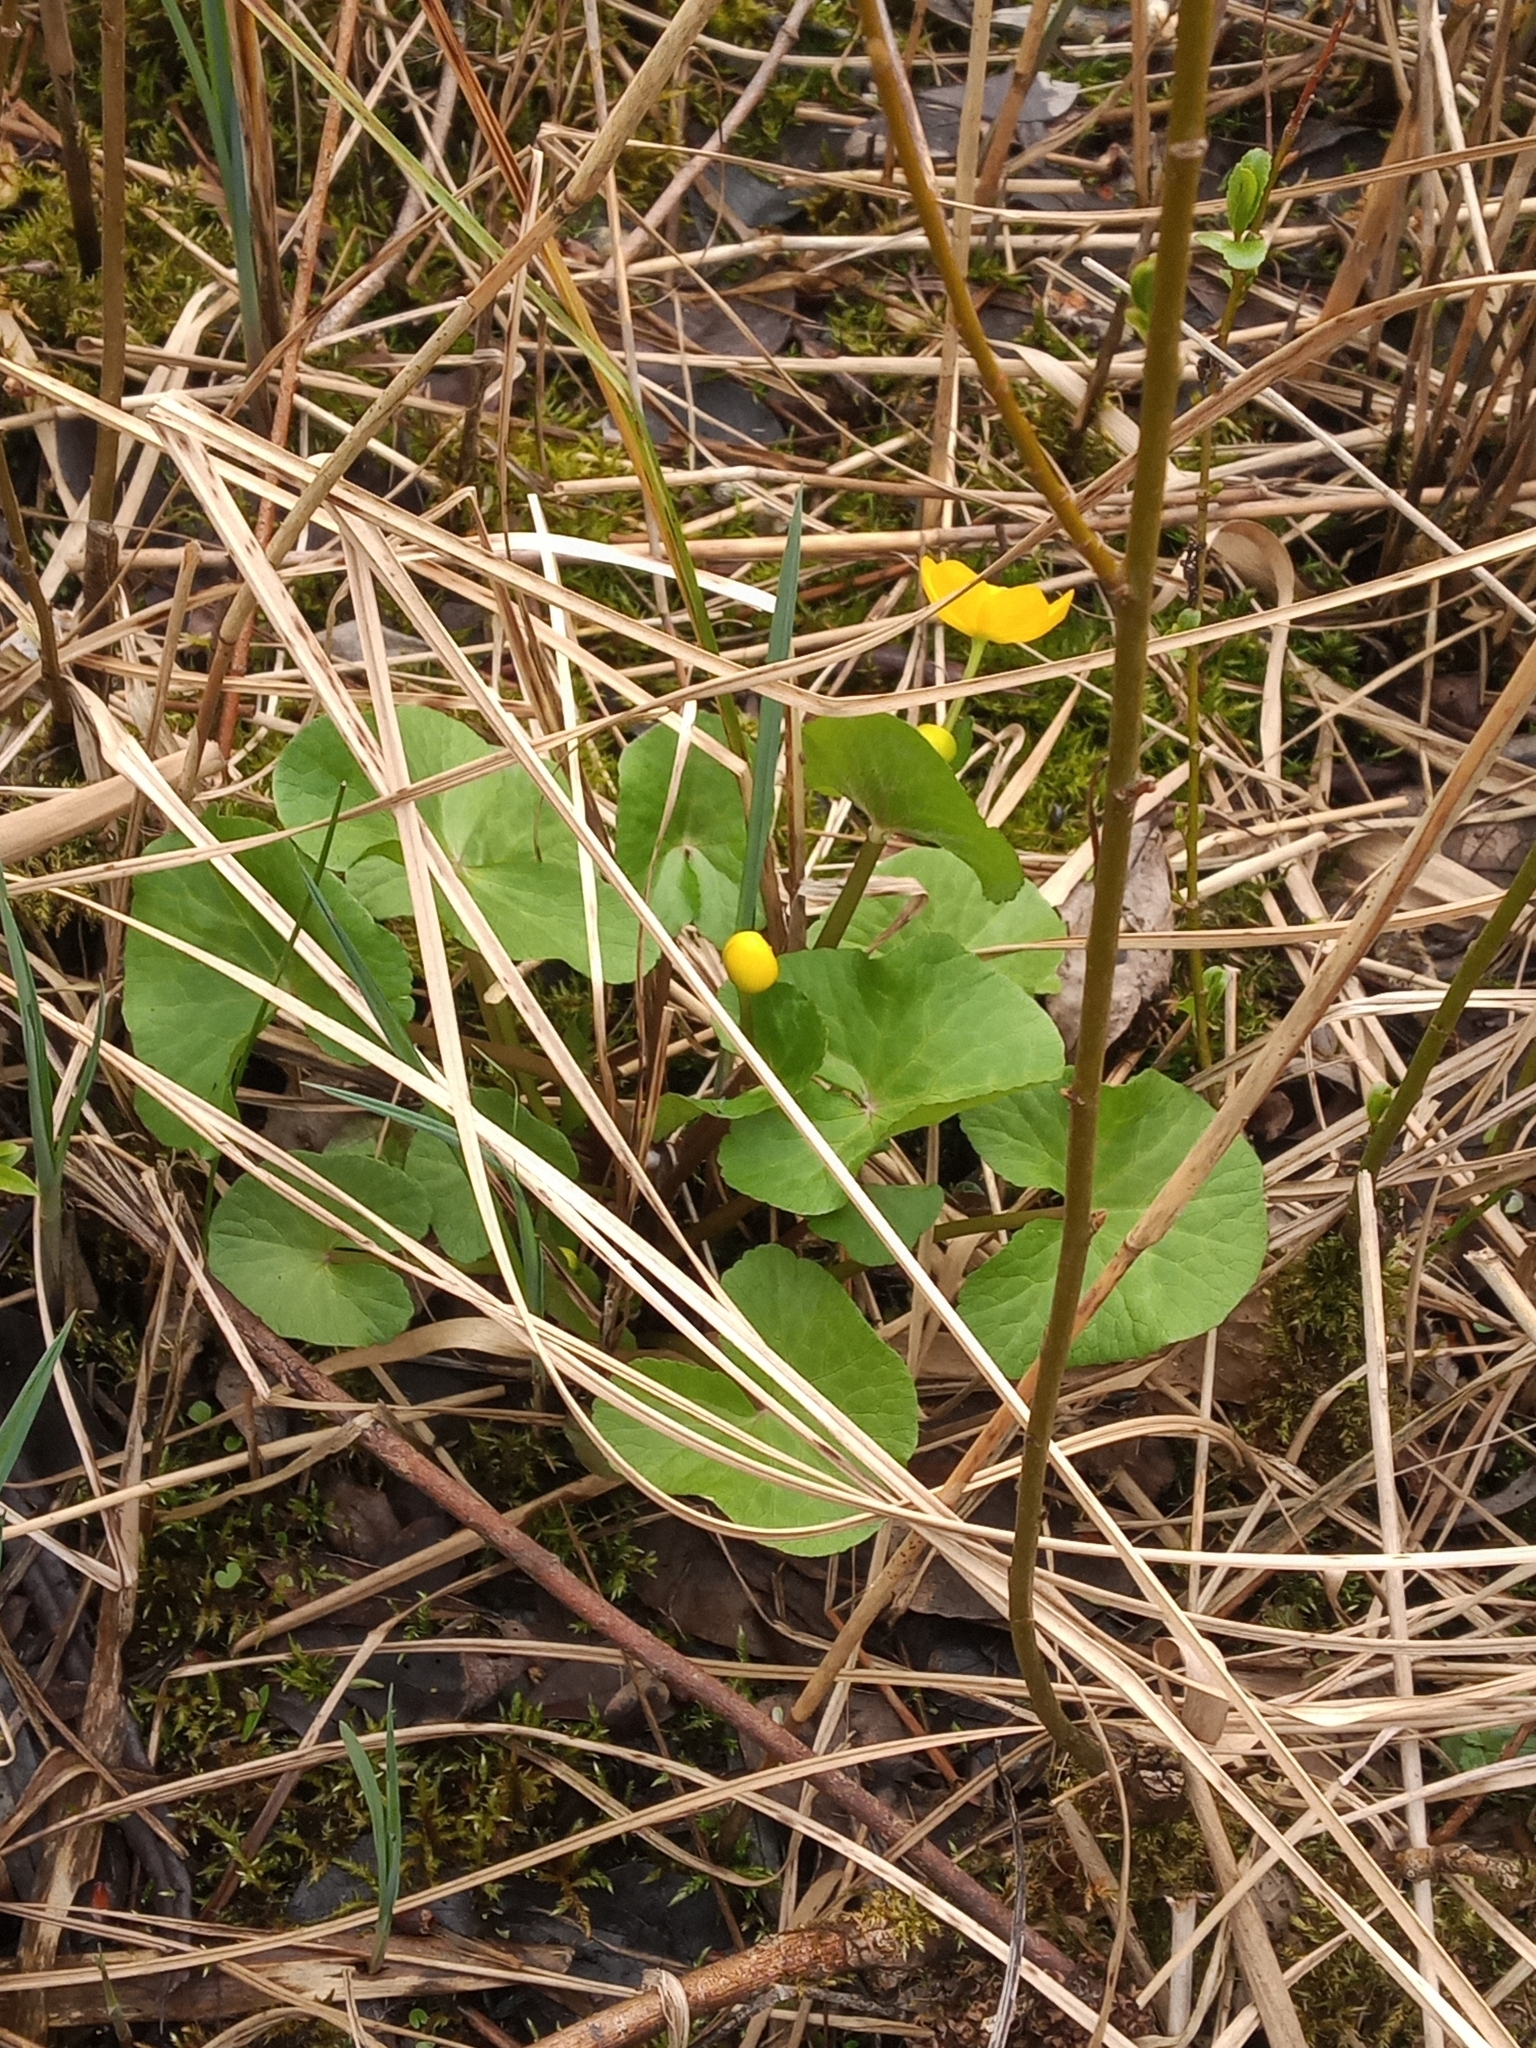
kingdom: Plantae
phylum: Tracheophyta
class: Magnoliopsida
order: Ranunculales
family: Ranunculaceae
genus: Caltha
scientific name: Caltha palustris
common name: Marsh marigold
